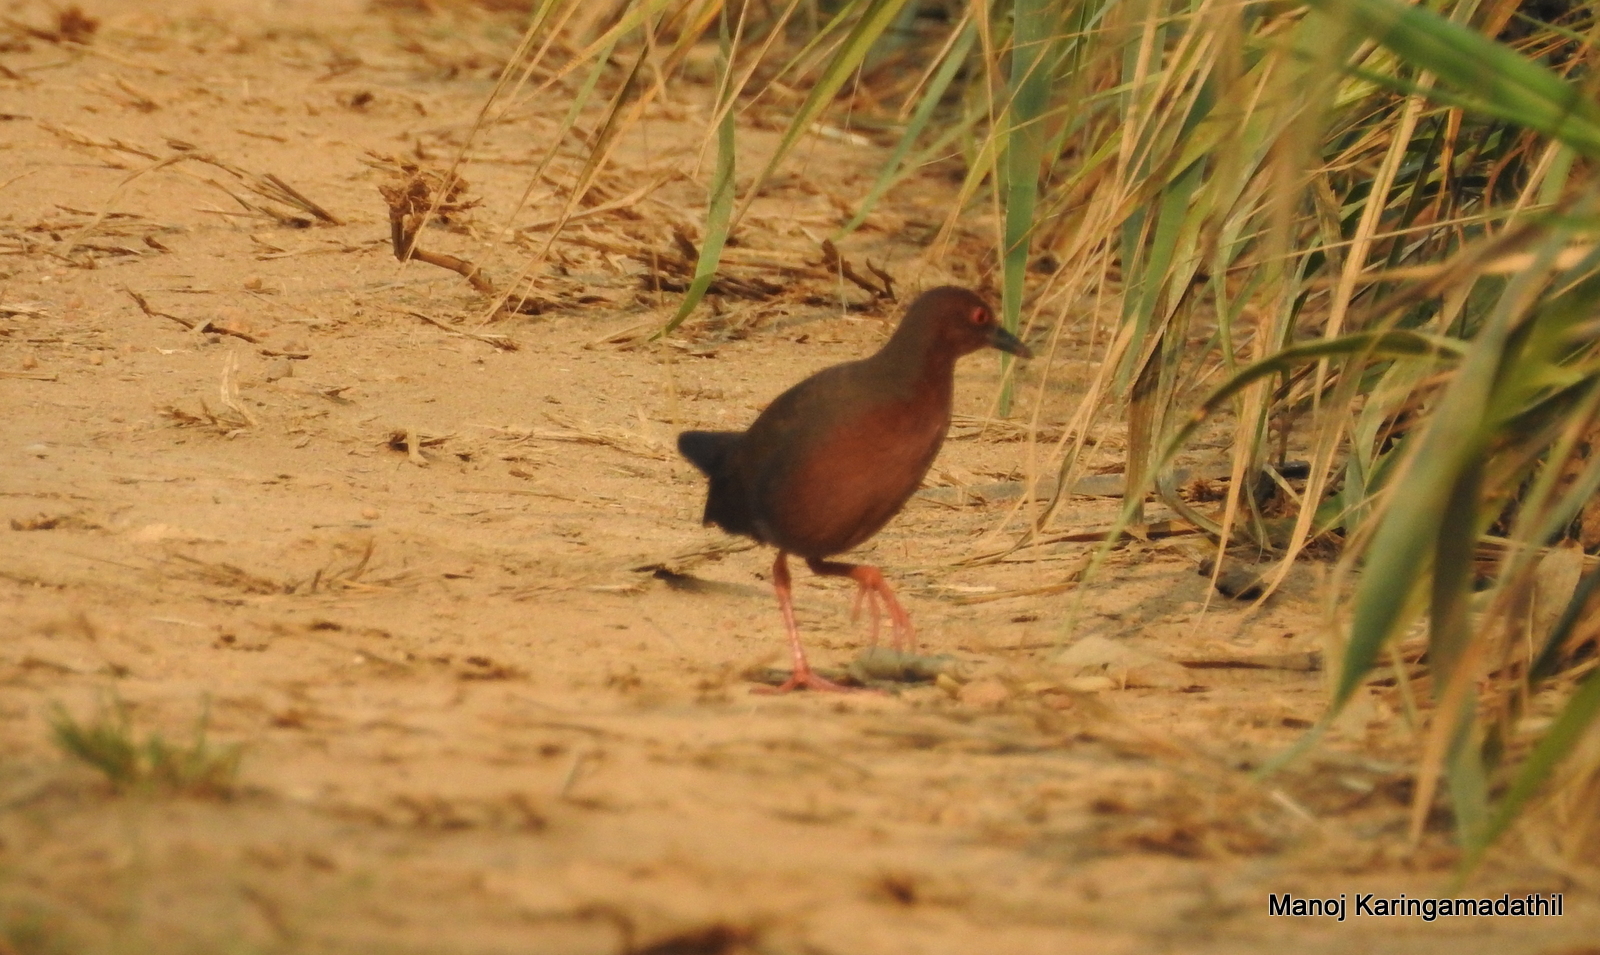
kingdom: Animalia
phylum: Chordata
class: Aves
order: Gruiformes
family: Rallidae
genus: Porzana
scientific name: Porzana fusca
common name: Ruddy-breasted crake
